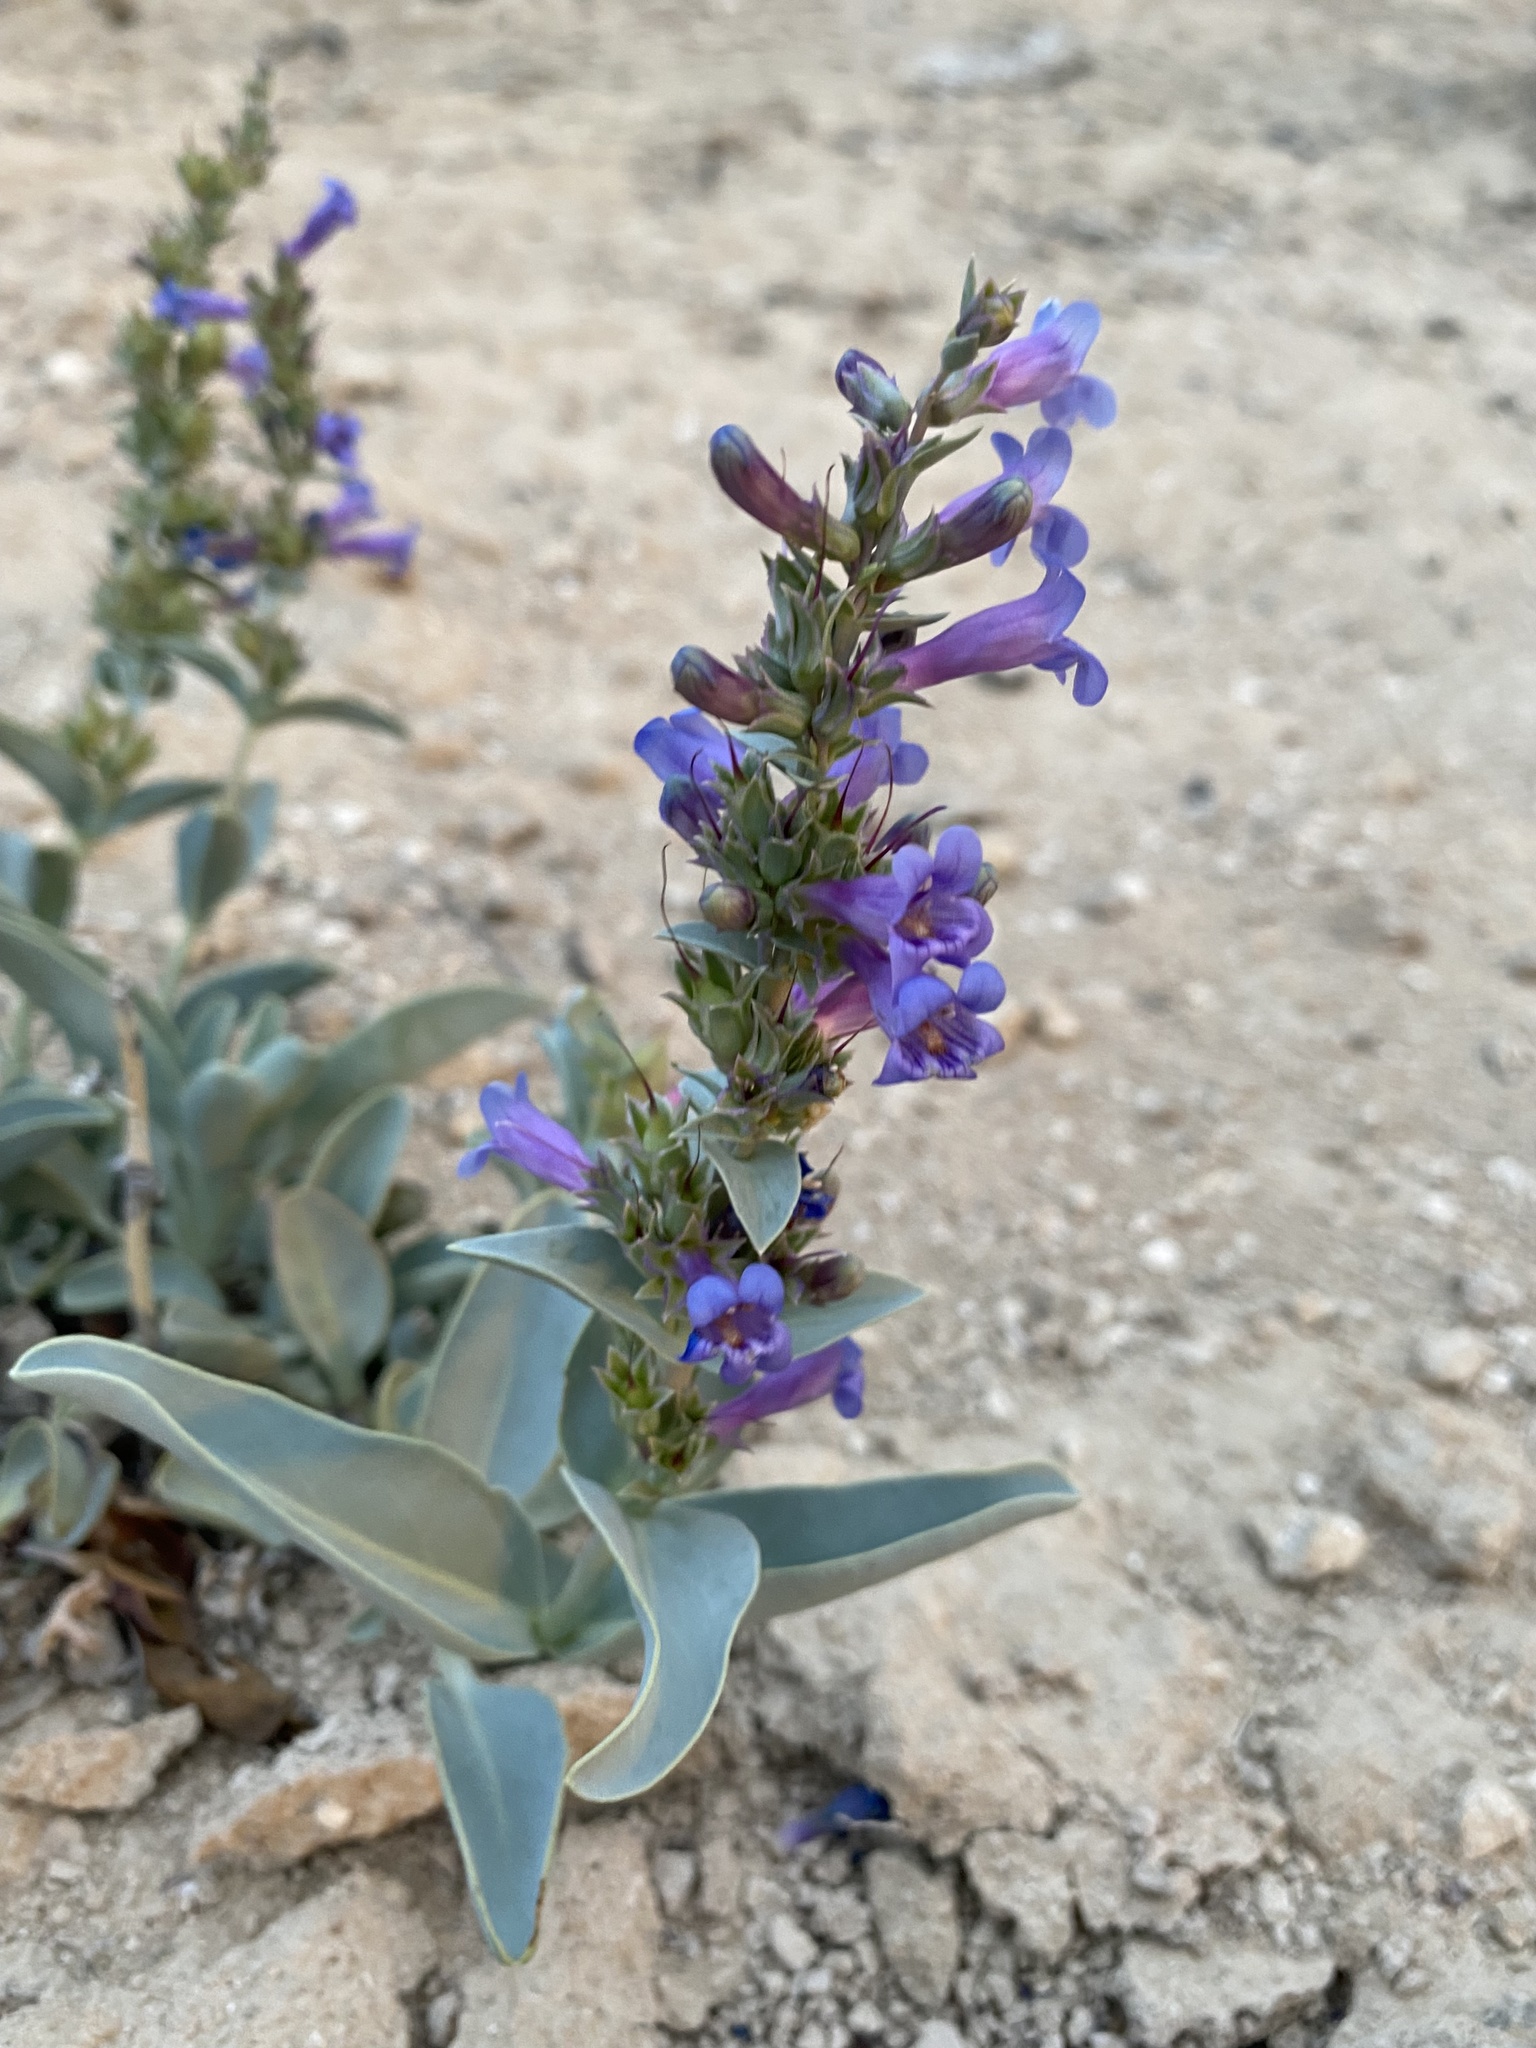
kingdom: Plantae
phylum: Tracheophyta
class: Magnoliopsida
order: Lamiales
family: Plantaginaceae
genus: Penstemon
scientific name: Penstemon immanifestus
